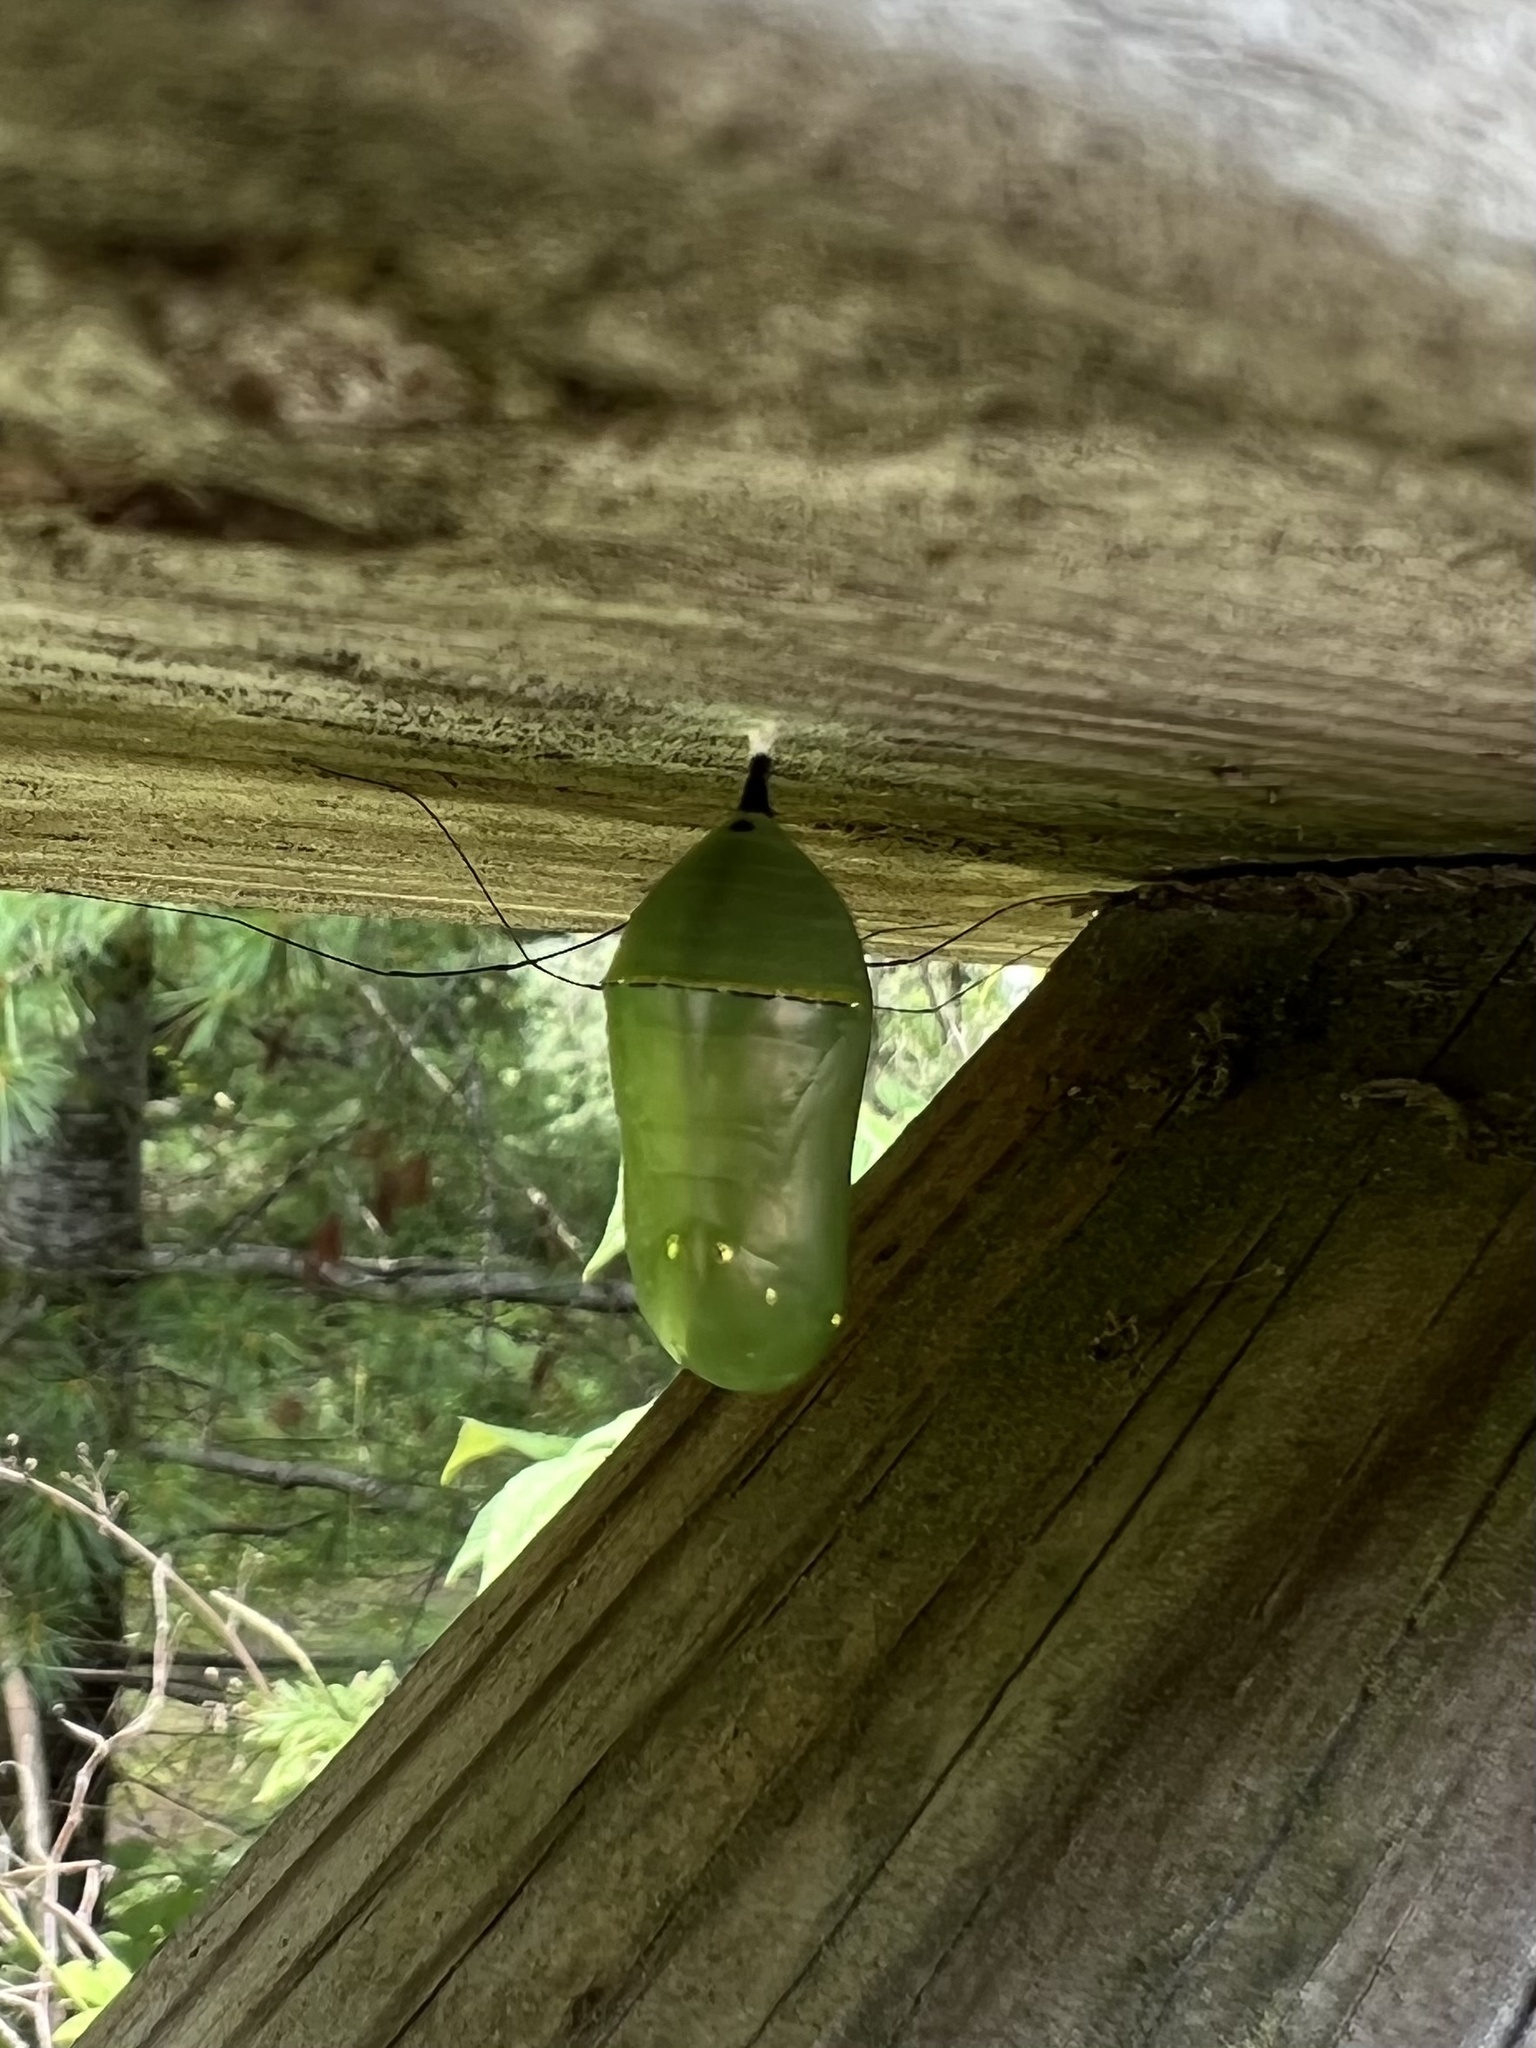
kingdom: Animalia
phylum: Arthropoda
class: Insecta
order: Lepidoptera
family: Nymphalidae
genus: Danaus
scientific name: Danaus plexippus
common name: Monarch
